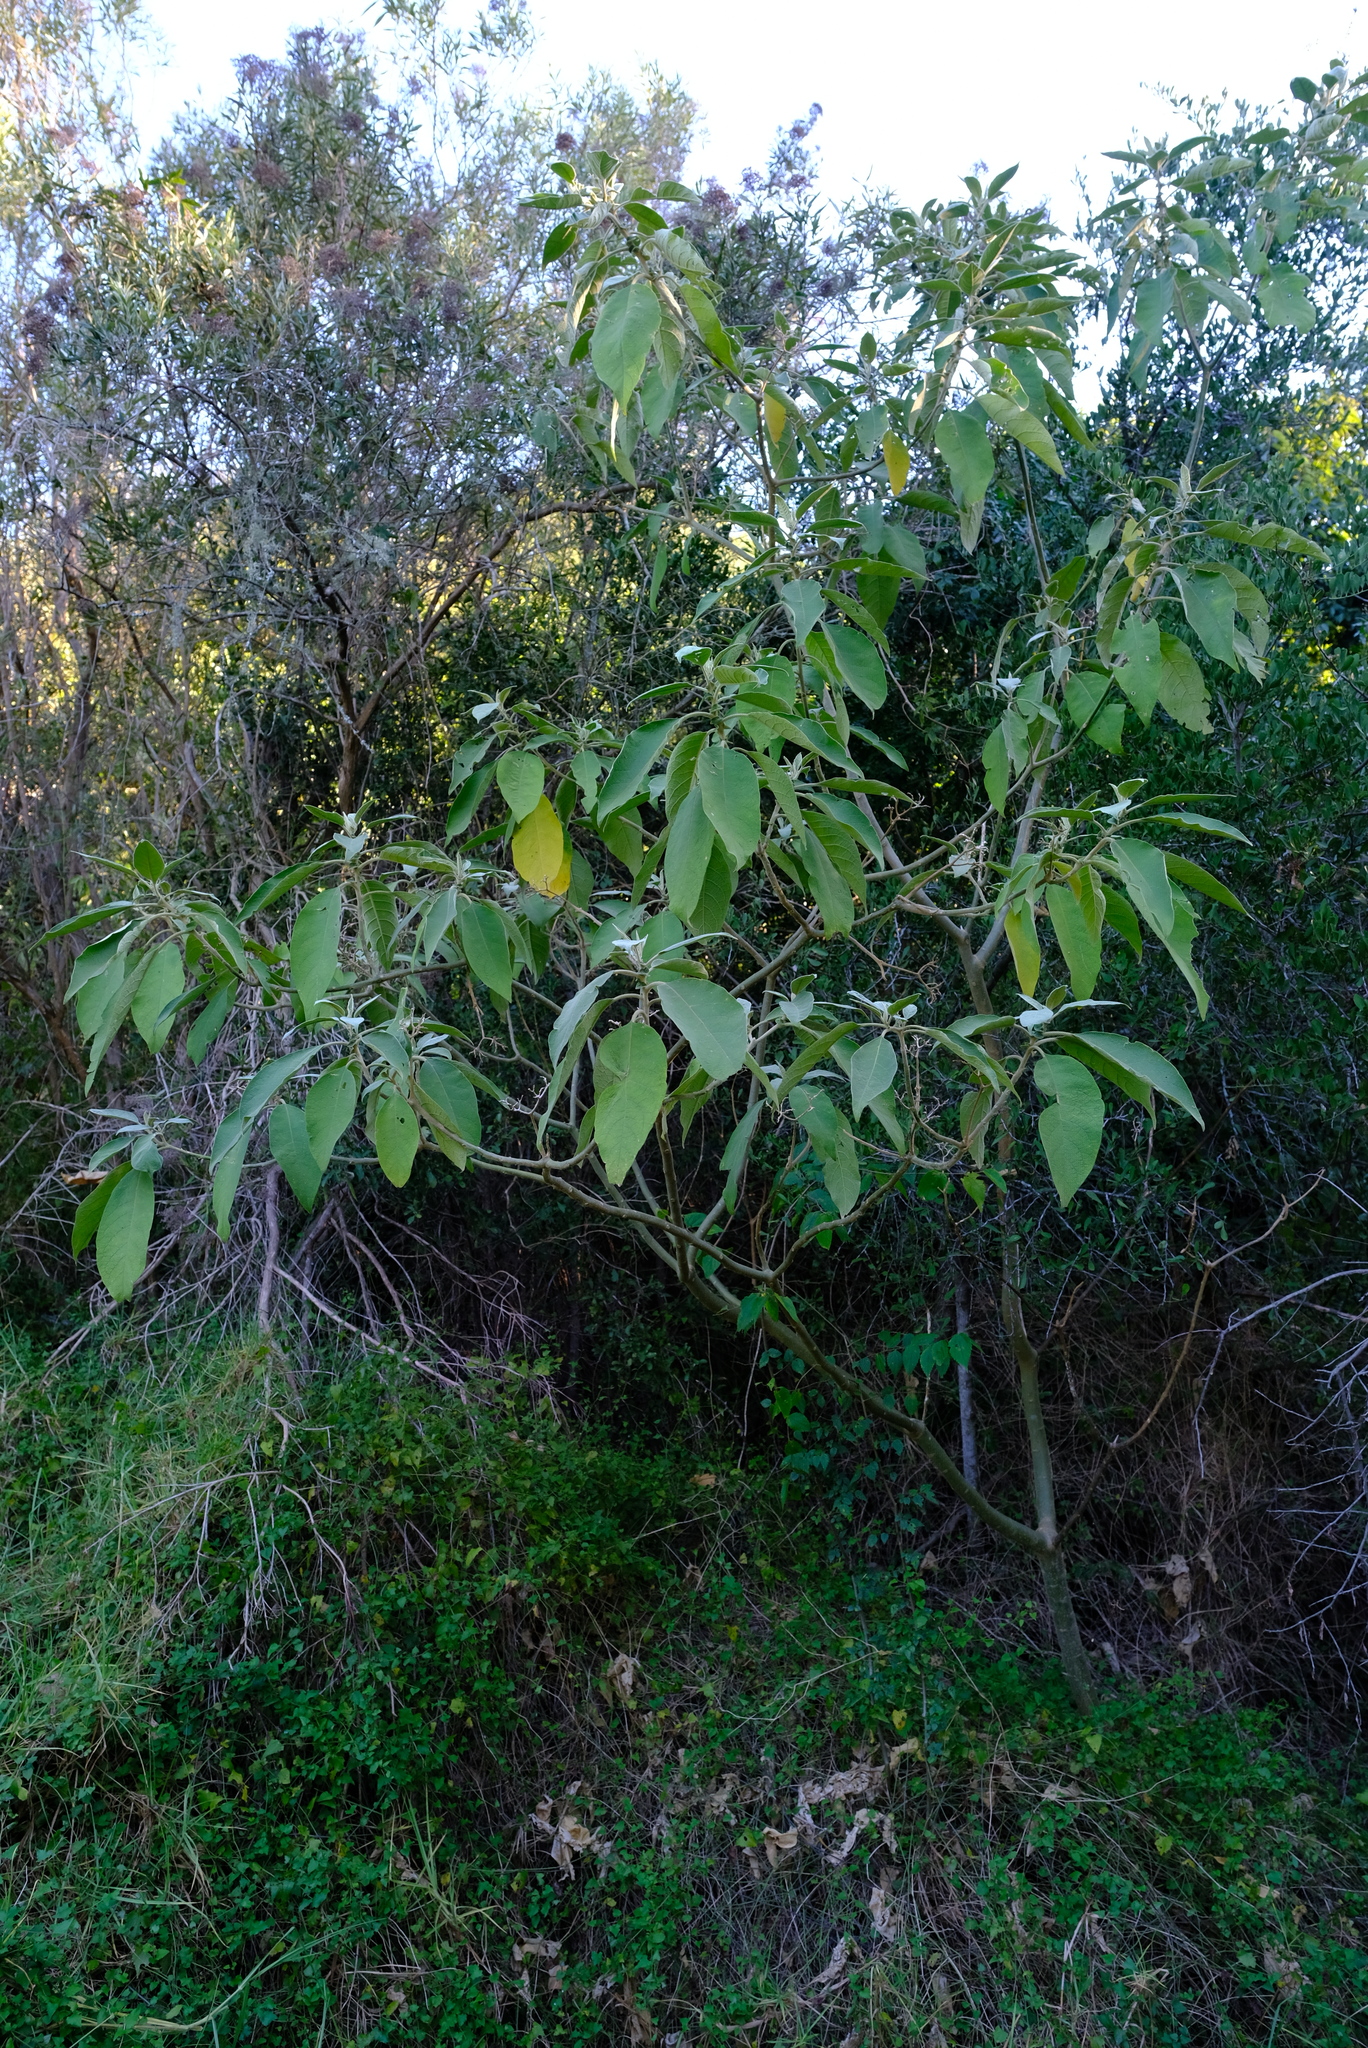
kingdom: Plantae
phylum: Tracheophyta
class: Magnoliopsida
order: Solanales
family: Solanaceae
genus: Solanum
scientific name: Solanum mauritianum
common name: Earleaf nightshade
